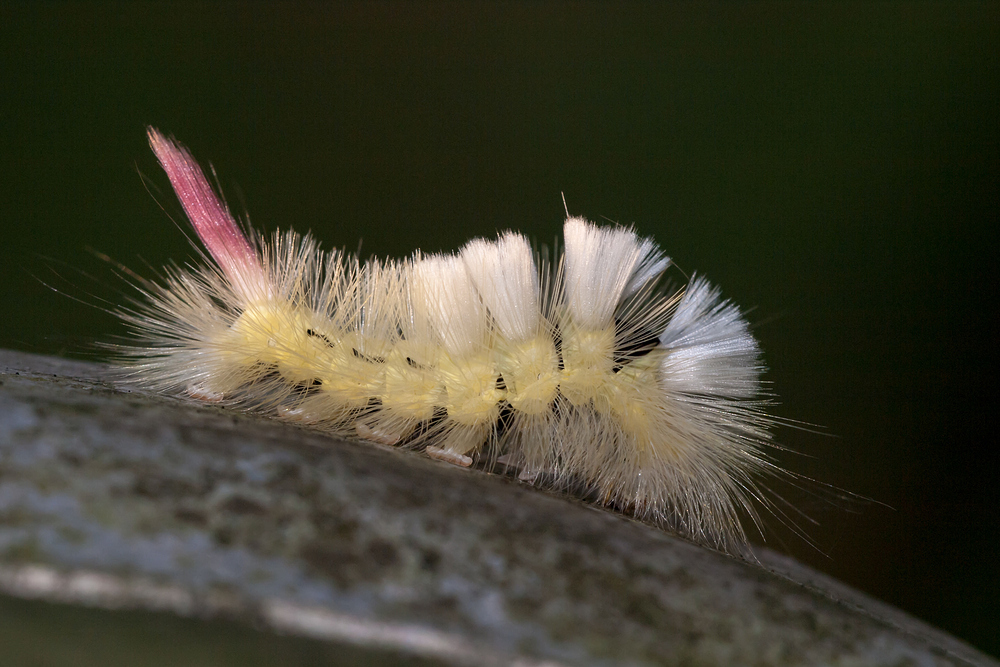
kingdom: Animalia
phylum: Arthropoda
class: Insecta
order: Lepidoptera
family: Erebidae
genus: Calliteara
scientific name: Calliteara pudibunda
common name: Pale tussock
